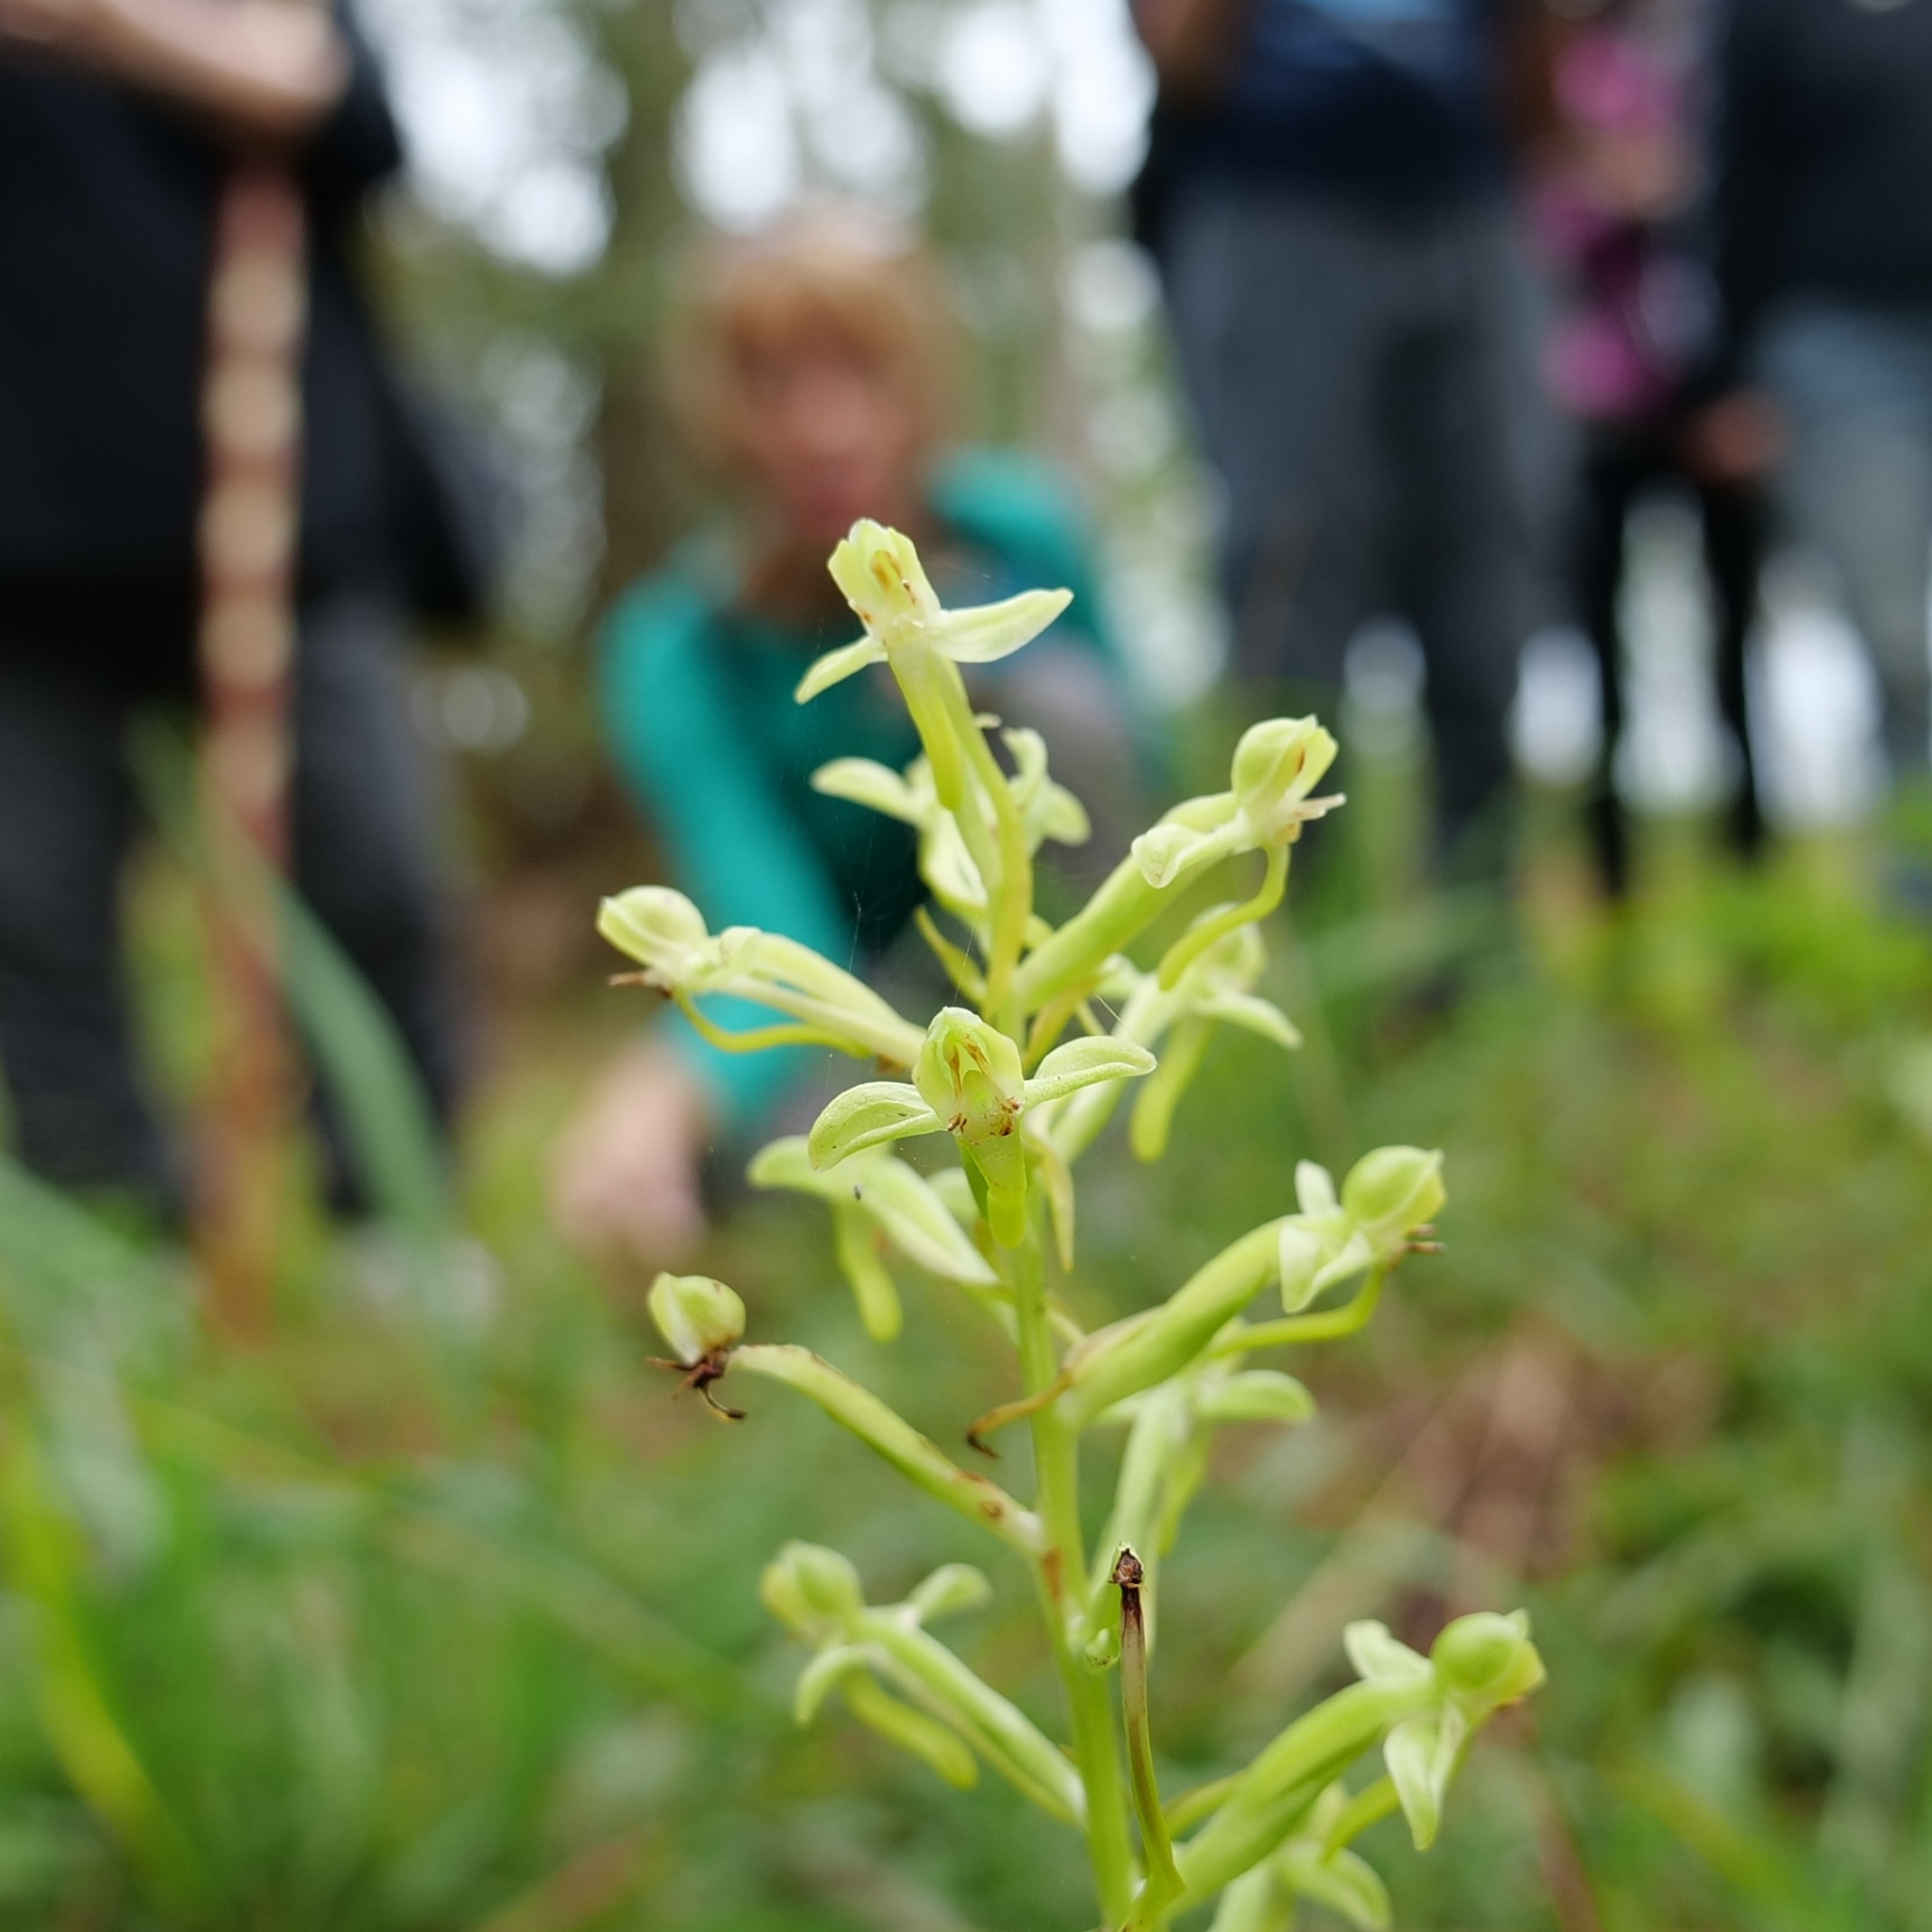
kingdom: Plantae
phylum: Tracheophyta
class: Liliopsida
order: Asparagales
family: Orchidaceae
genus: Habenaria
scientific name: Habenaria floribunda
